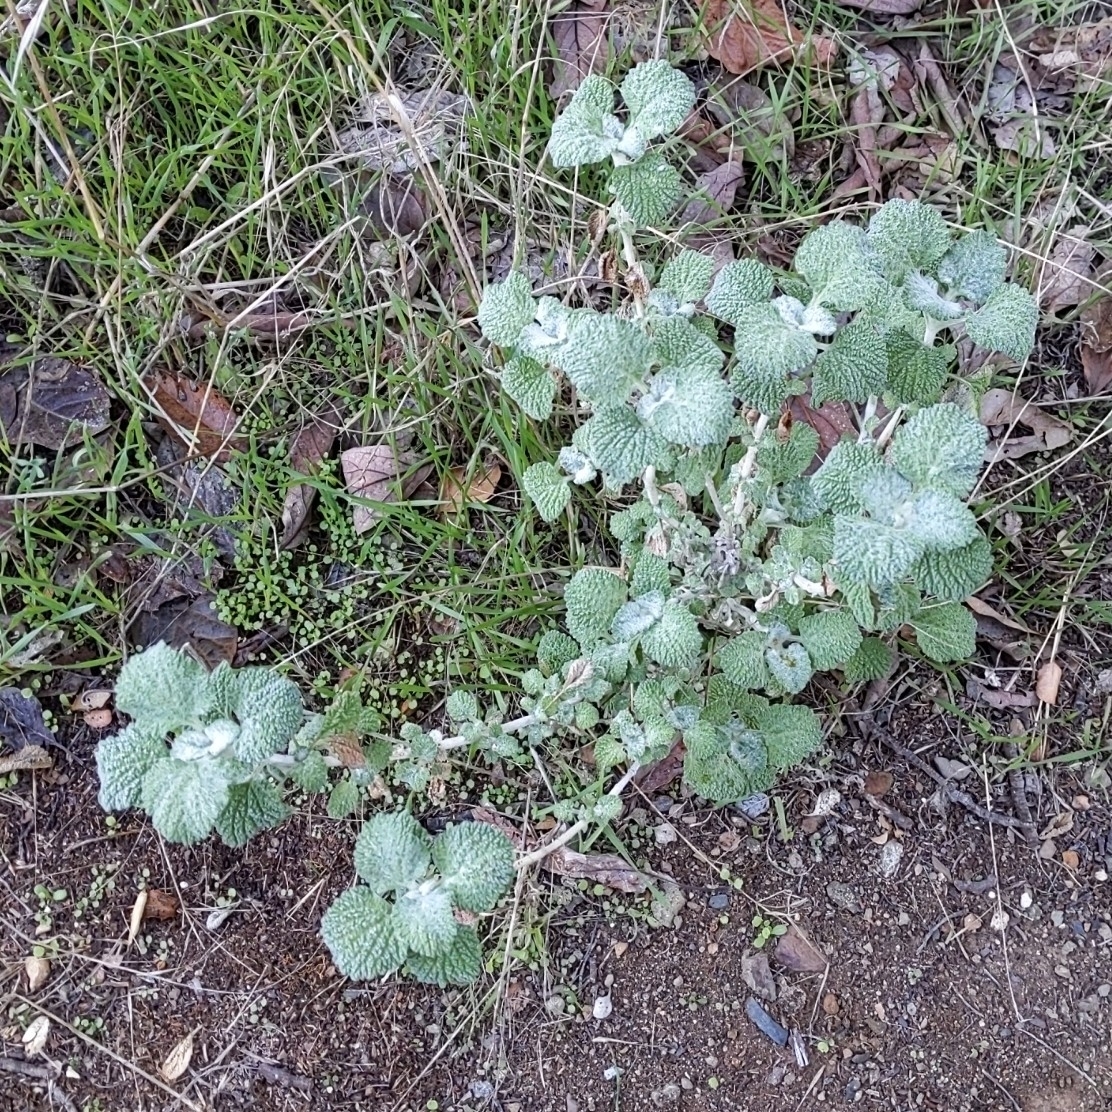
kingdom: Plantae
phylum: Tracheophyta
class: Magnoliopsida
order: Lamiales
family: Lamiaceae
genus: Marrubium
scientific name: Marrubium vulgare
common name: Horehound
